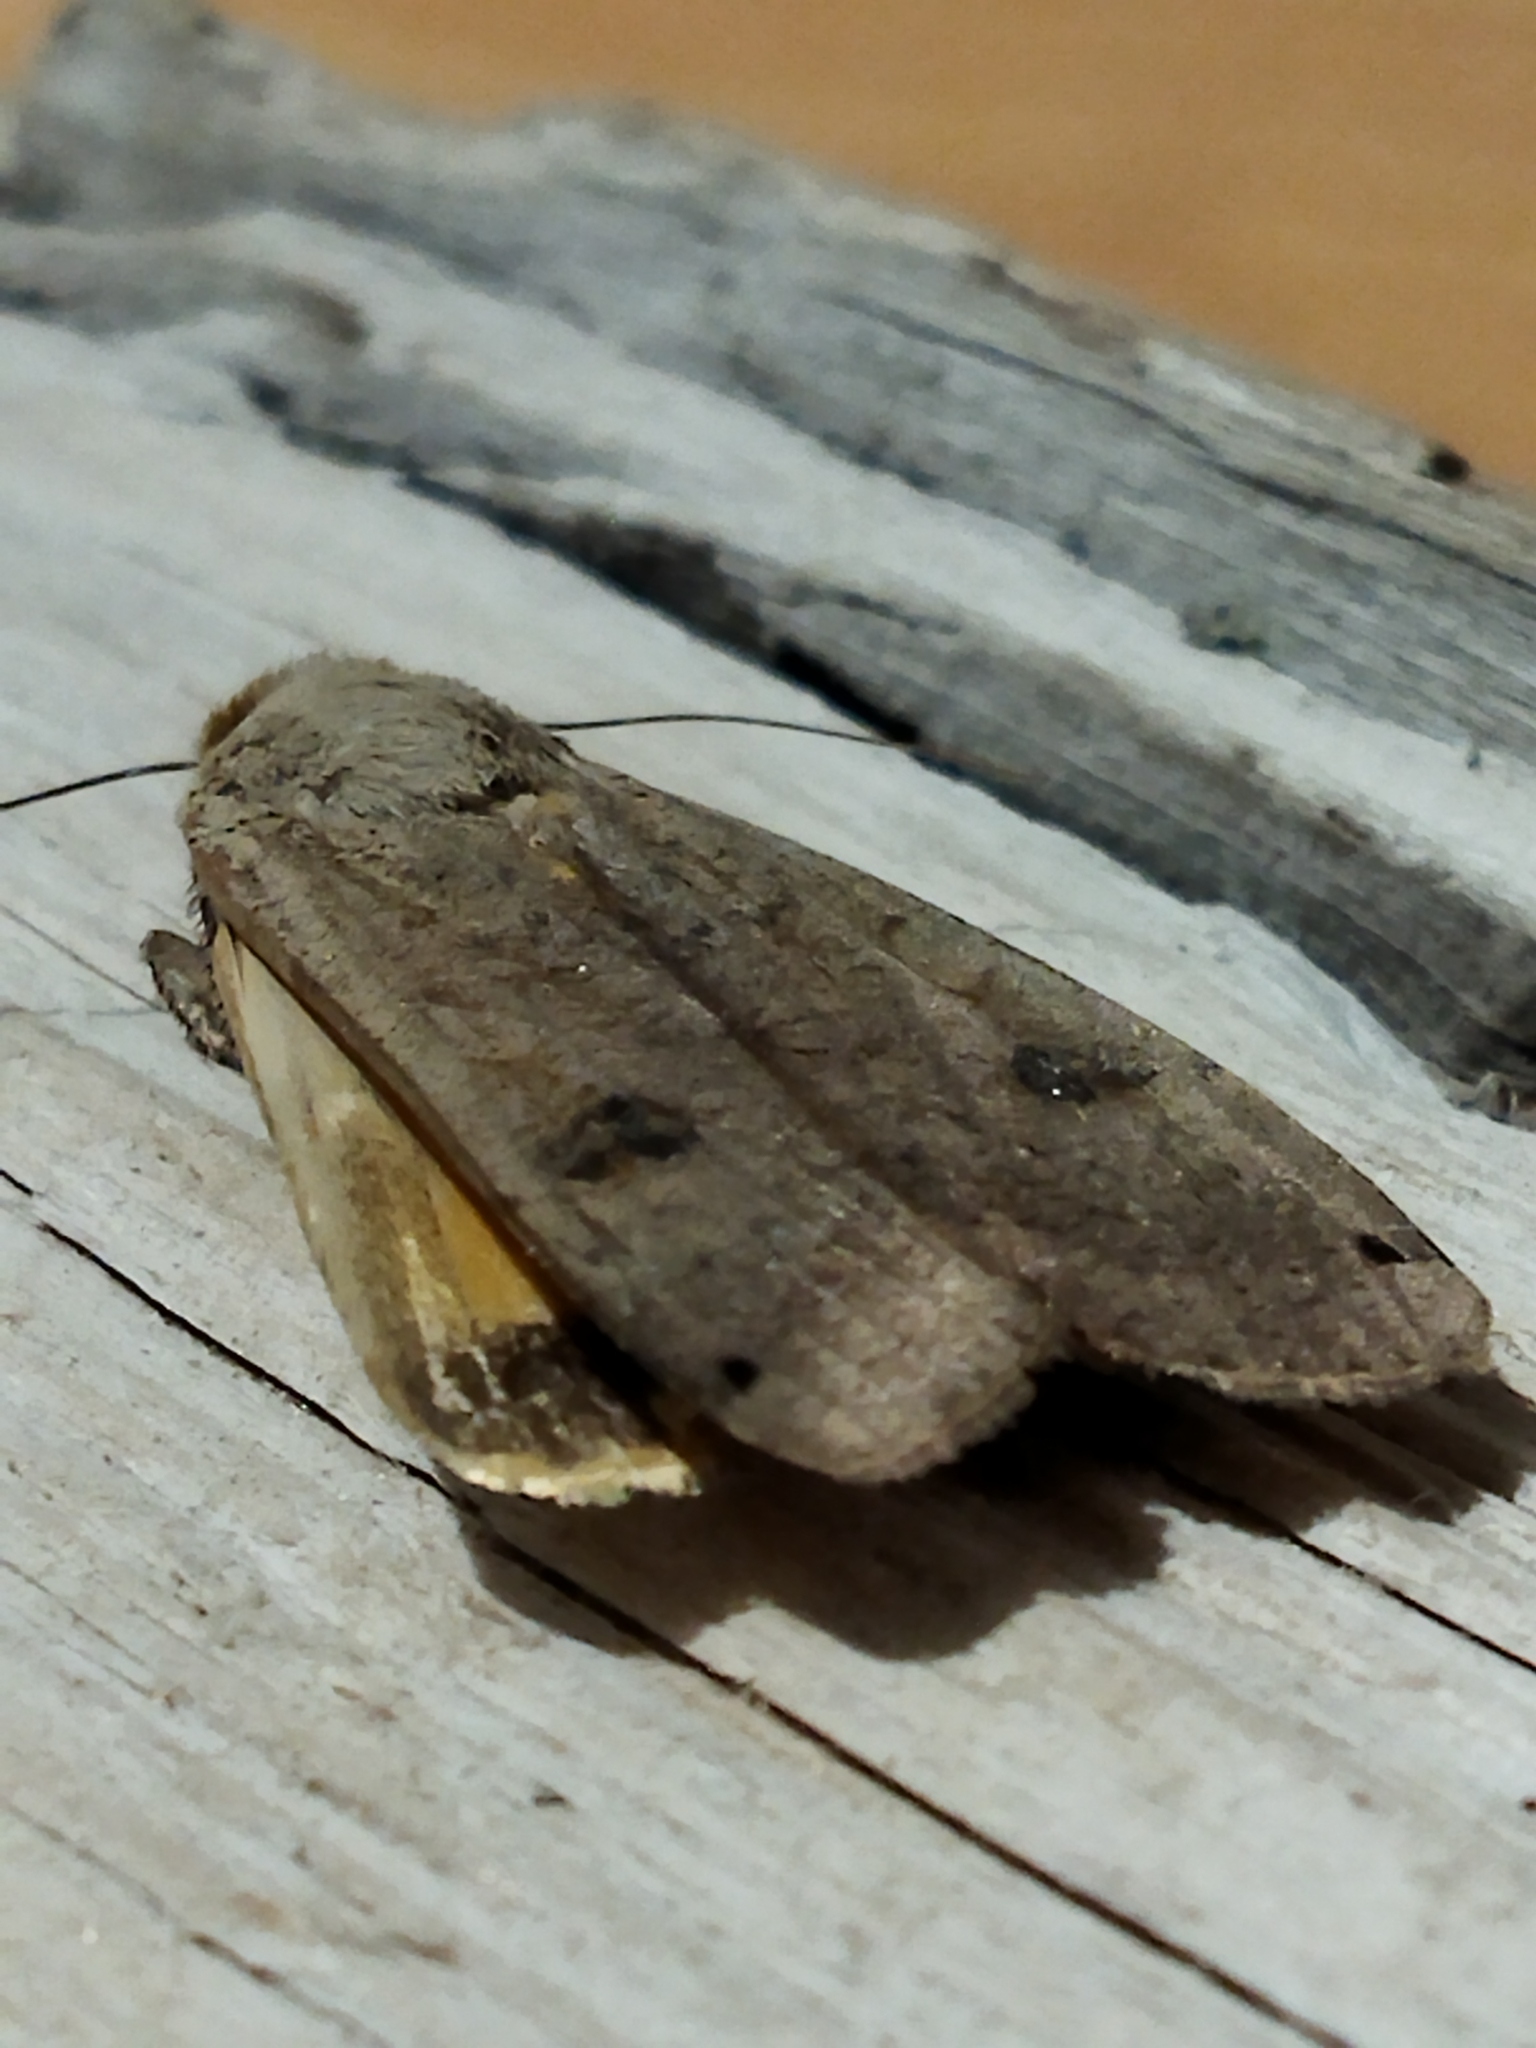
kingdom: Animalia
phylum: Arthropoda
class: Insecta
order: Lepidoptera
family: Noctuidae
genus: Noctua
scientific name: Noctua pronuba
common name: Large yellow underwing
